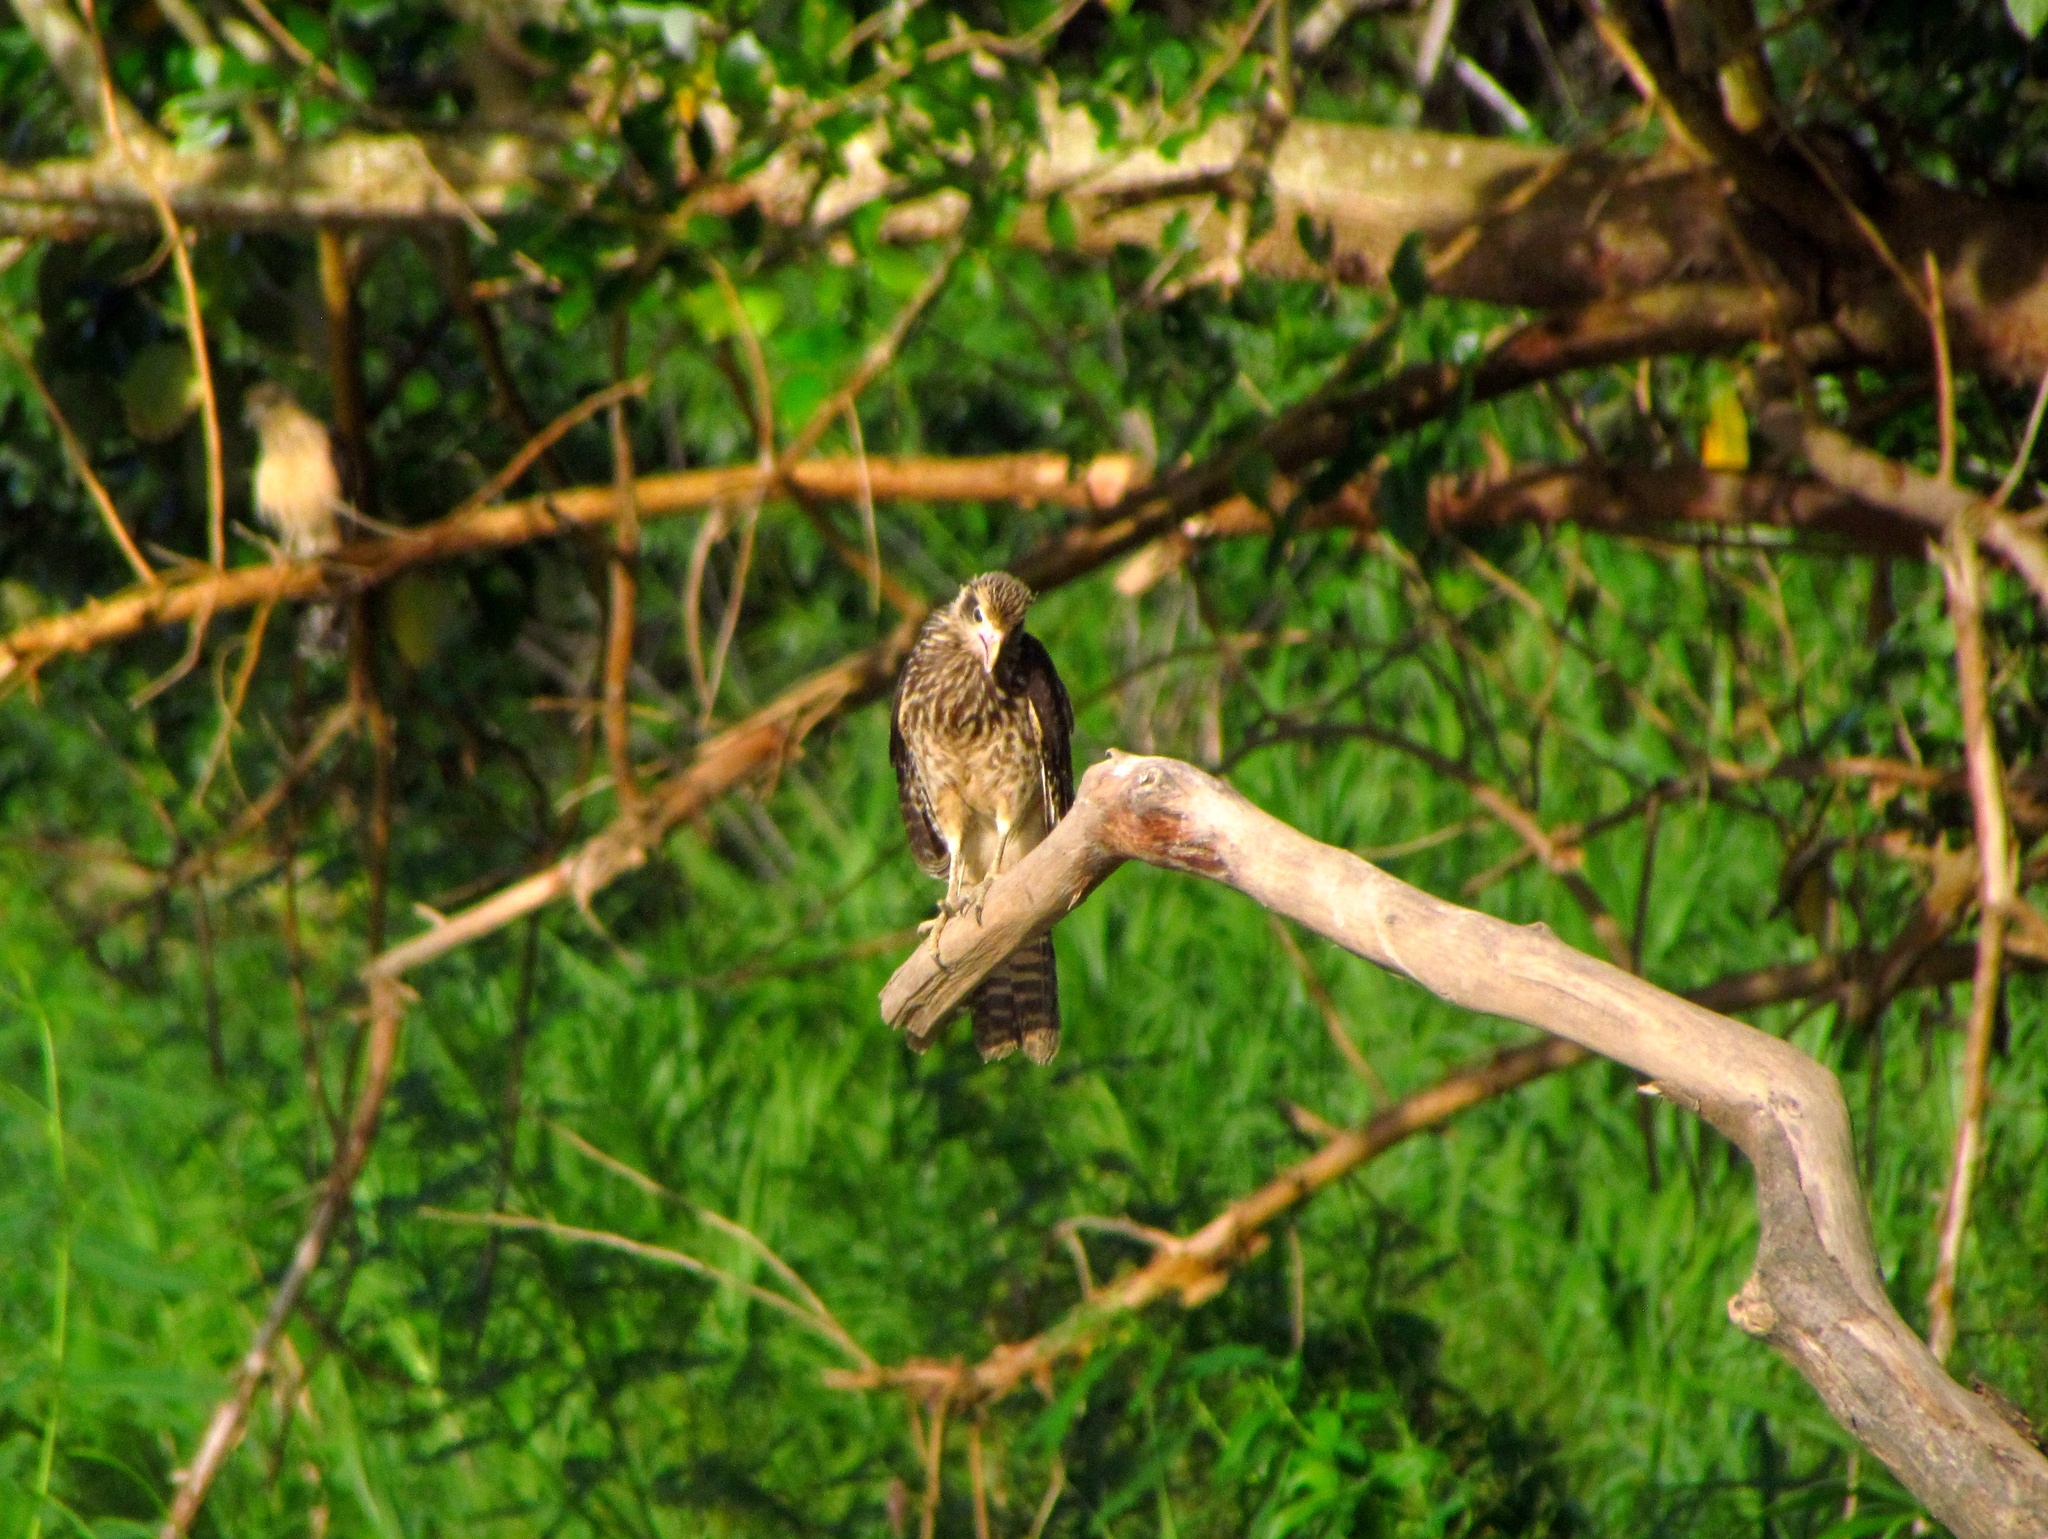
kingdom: Animalia
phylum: Chordata
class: Aves
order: Falconiformes
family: Falconidae
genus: Daptrius
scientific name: Daptrius
